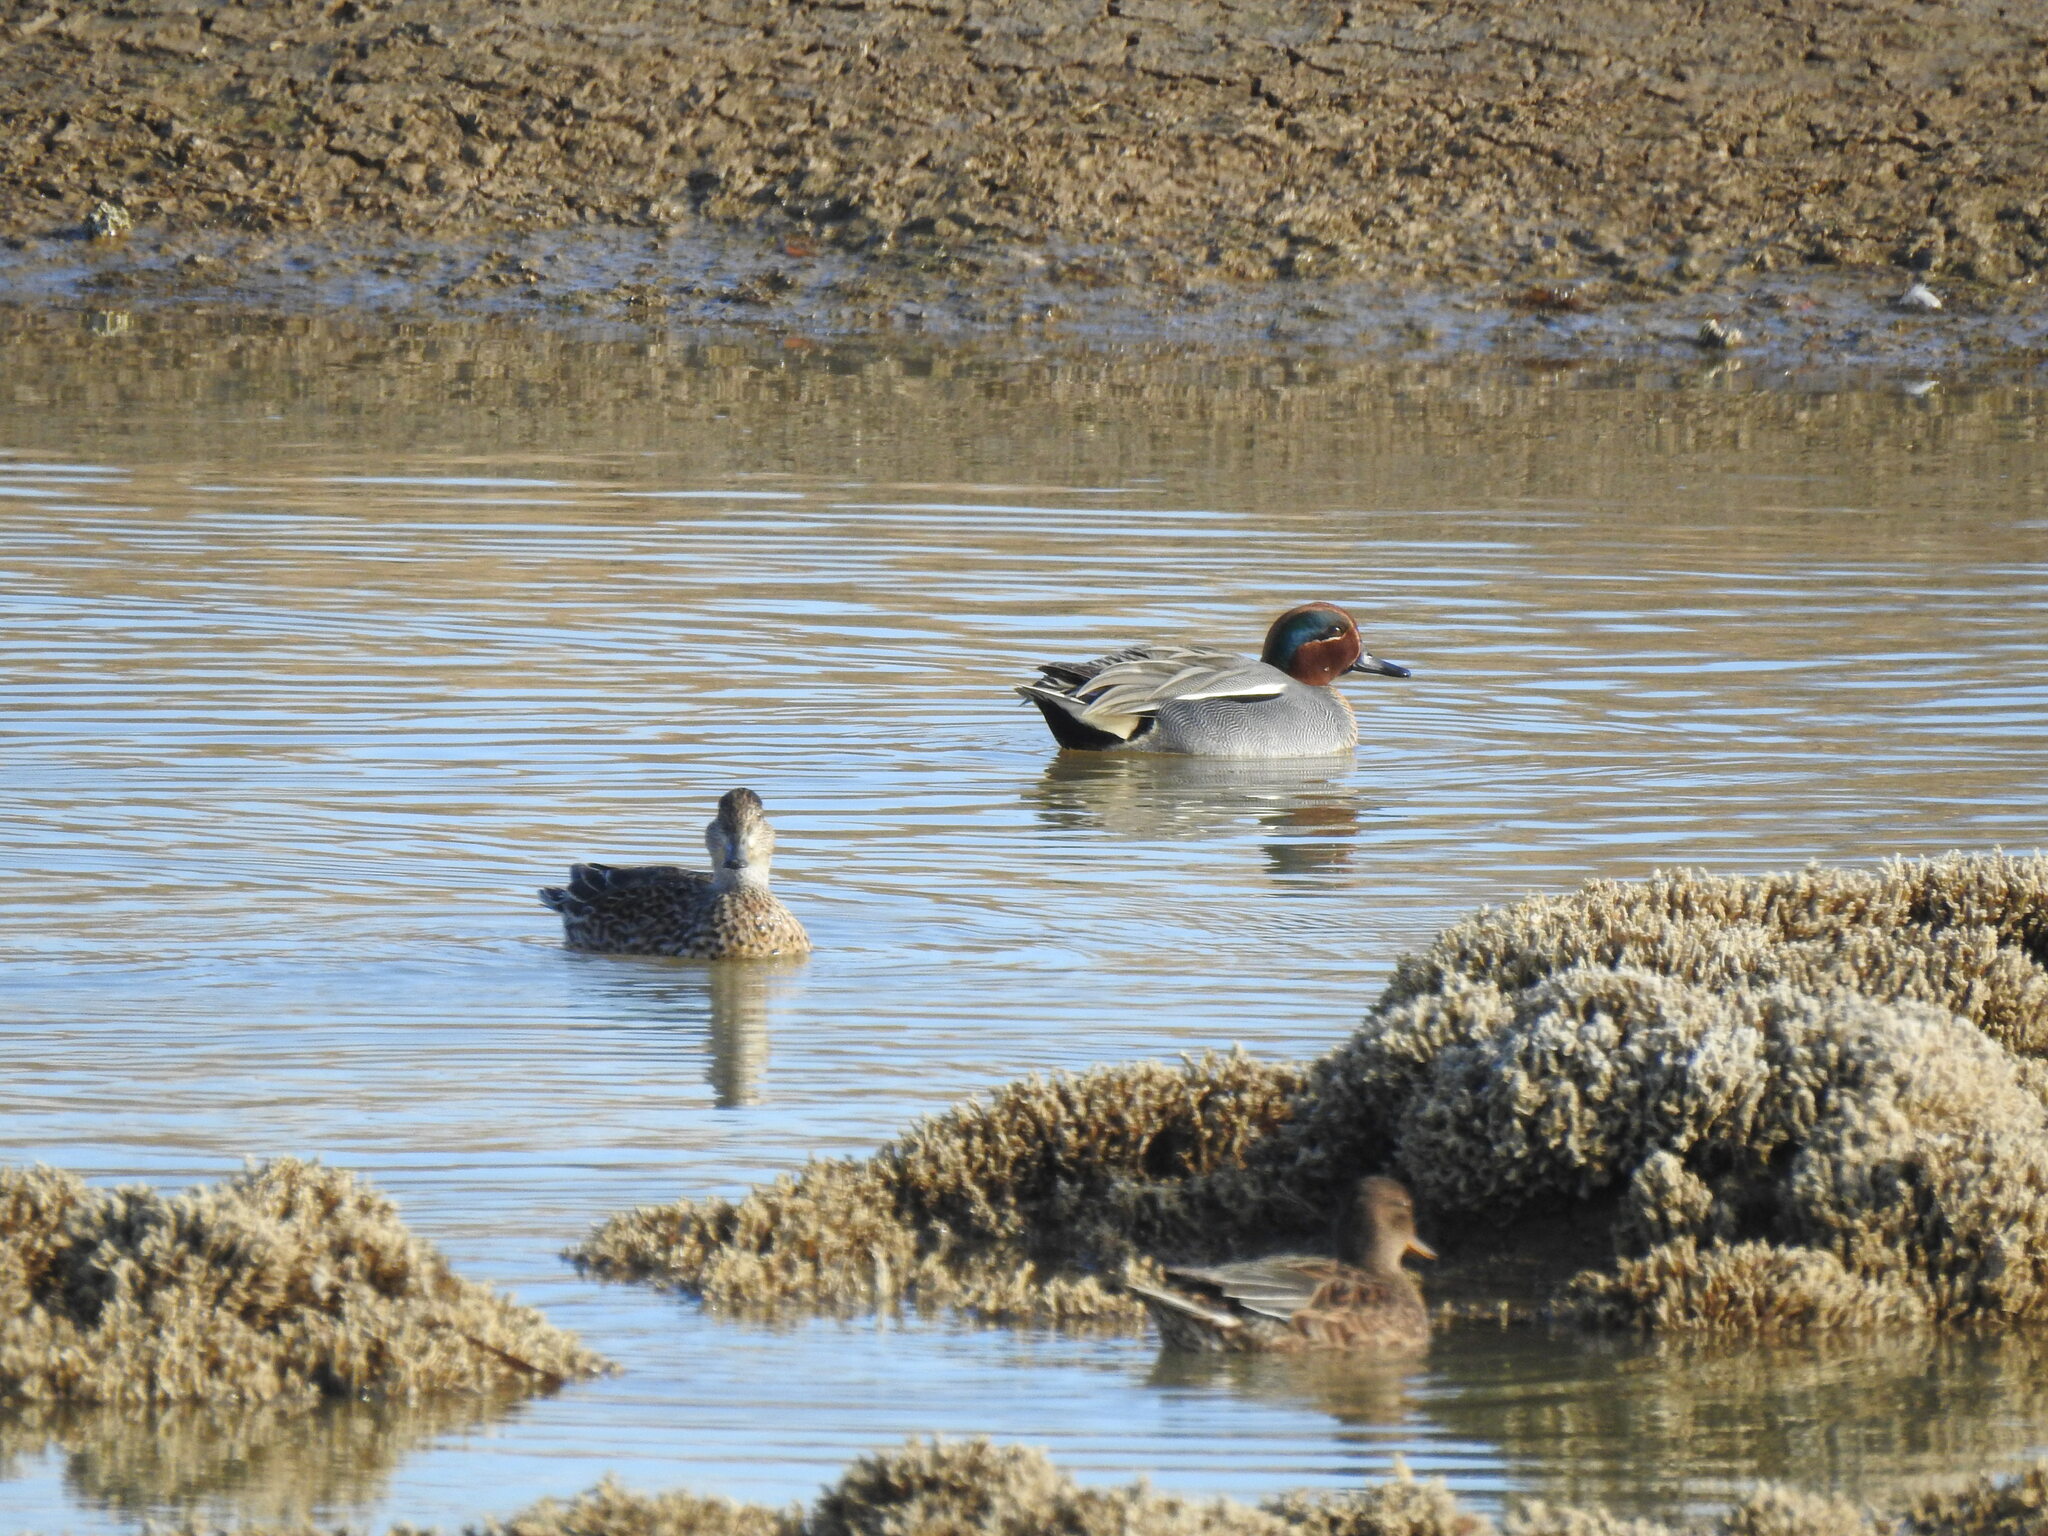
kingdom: Animalia
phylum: Chordata
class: Aves
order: Anseriformes
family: Anatidae
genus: Anas
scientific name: Anas crecca
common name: Eurasian teal
